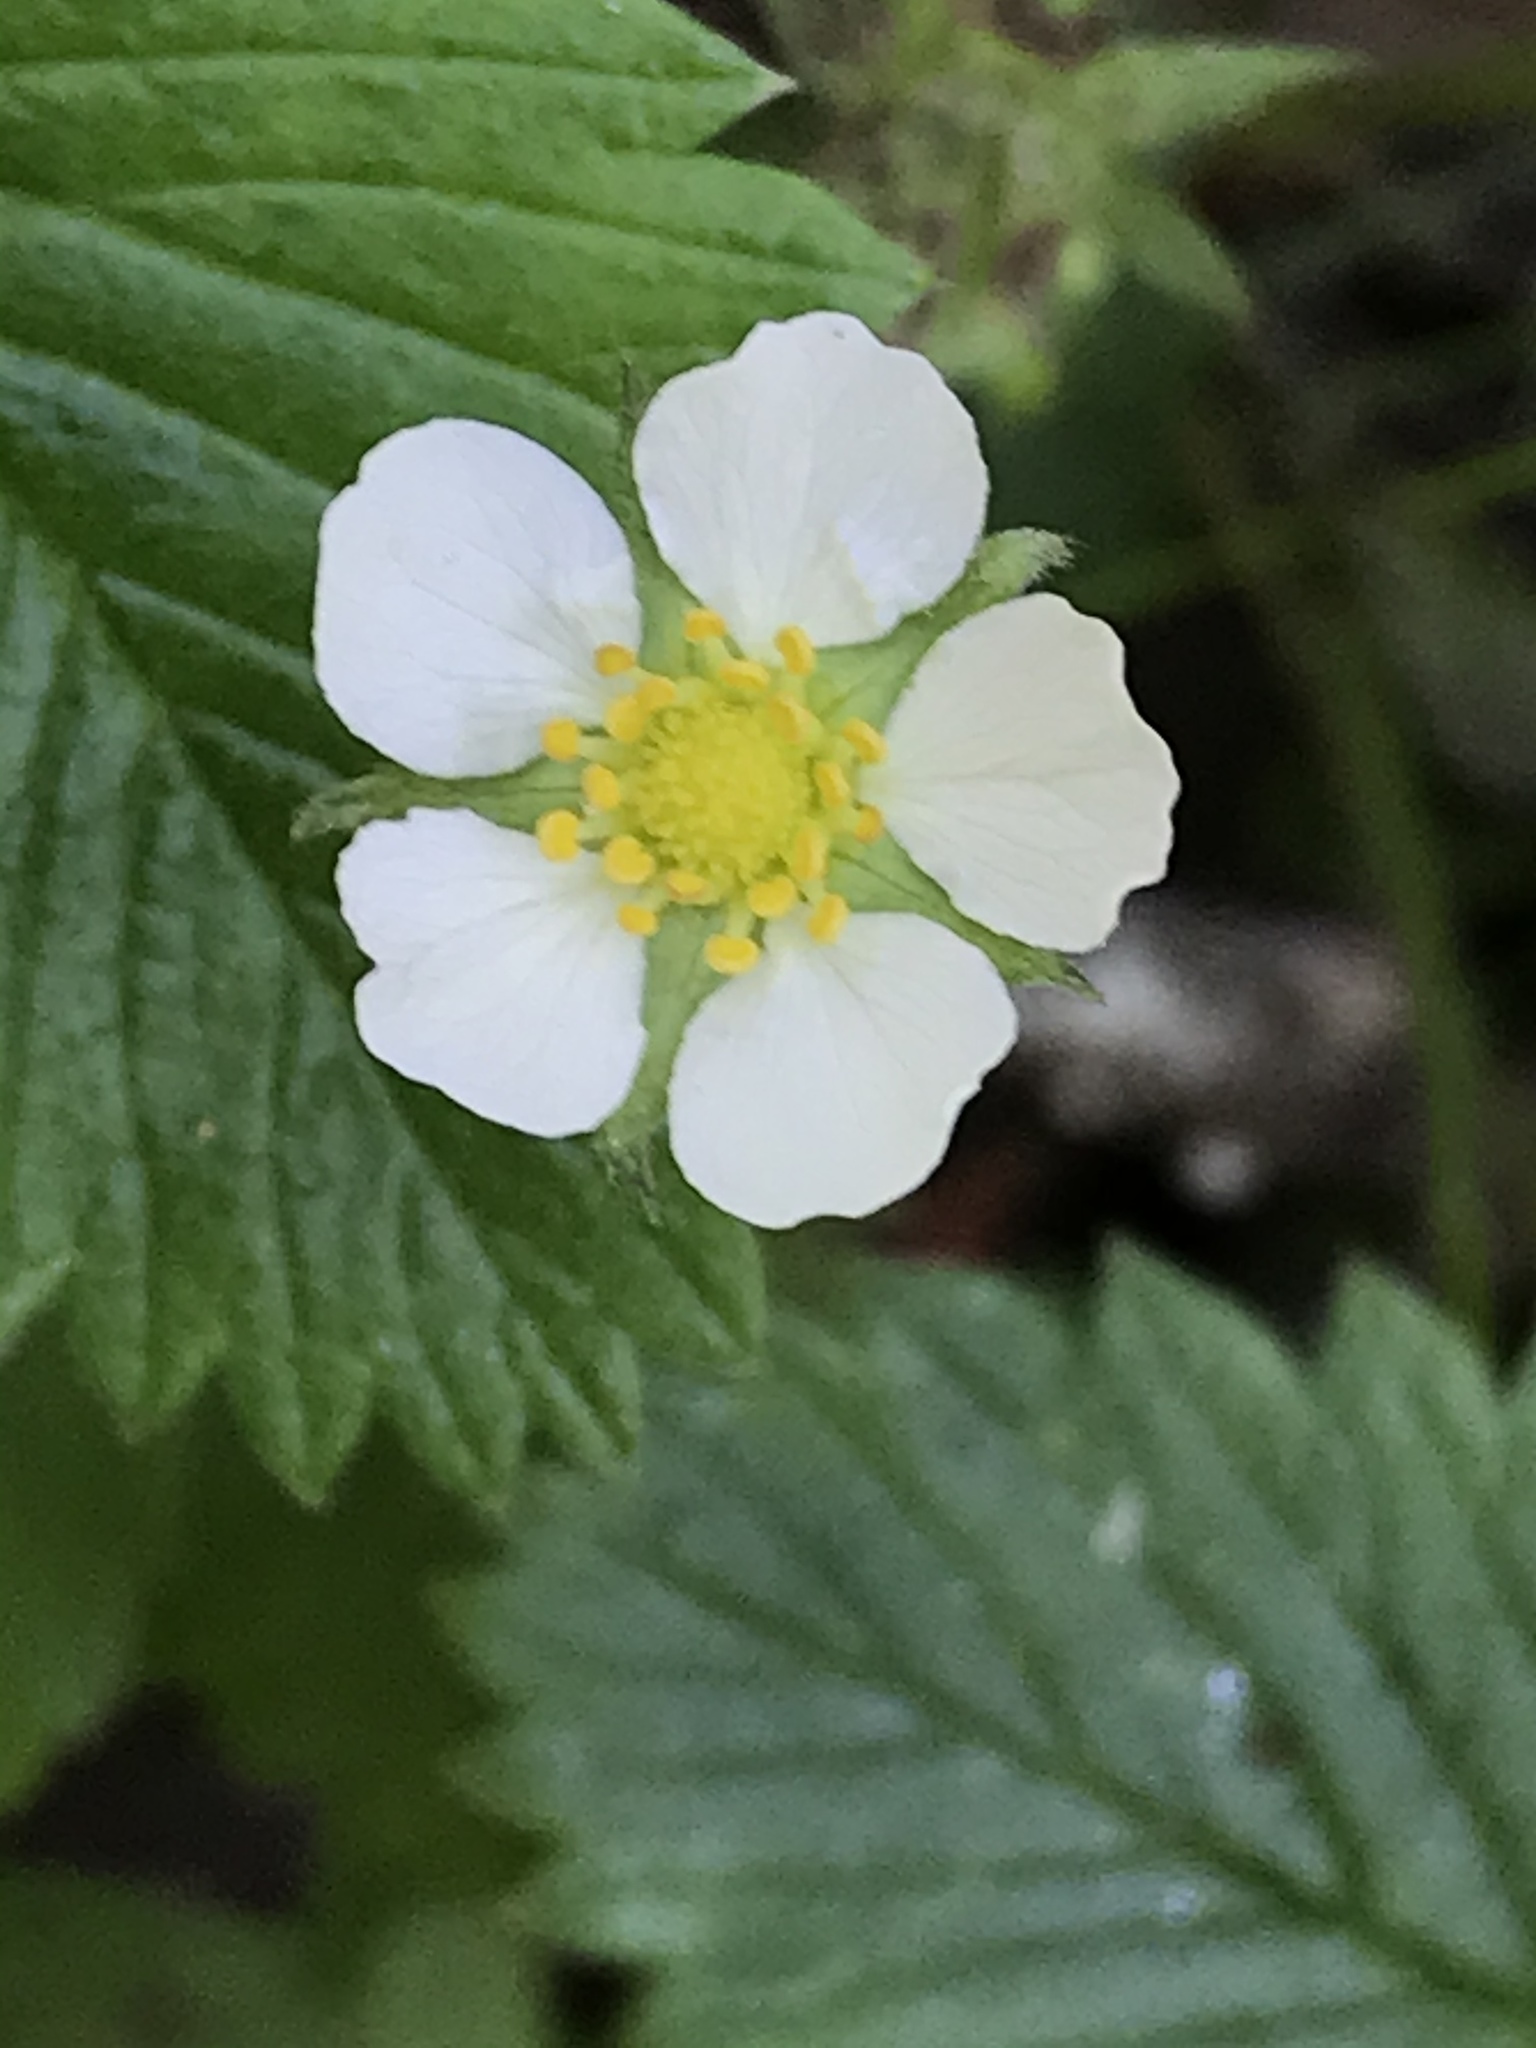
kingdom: Plantae
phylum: Tracheophyta
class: Magnoliopsida
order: Rosales
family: Rosaceae
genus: Fragaria
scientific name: Fragaria vesca
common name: Wild strawberry
